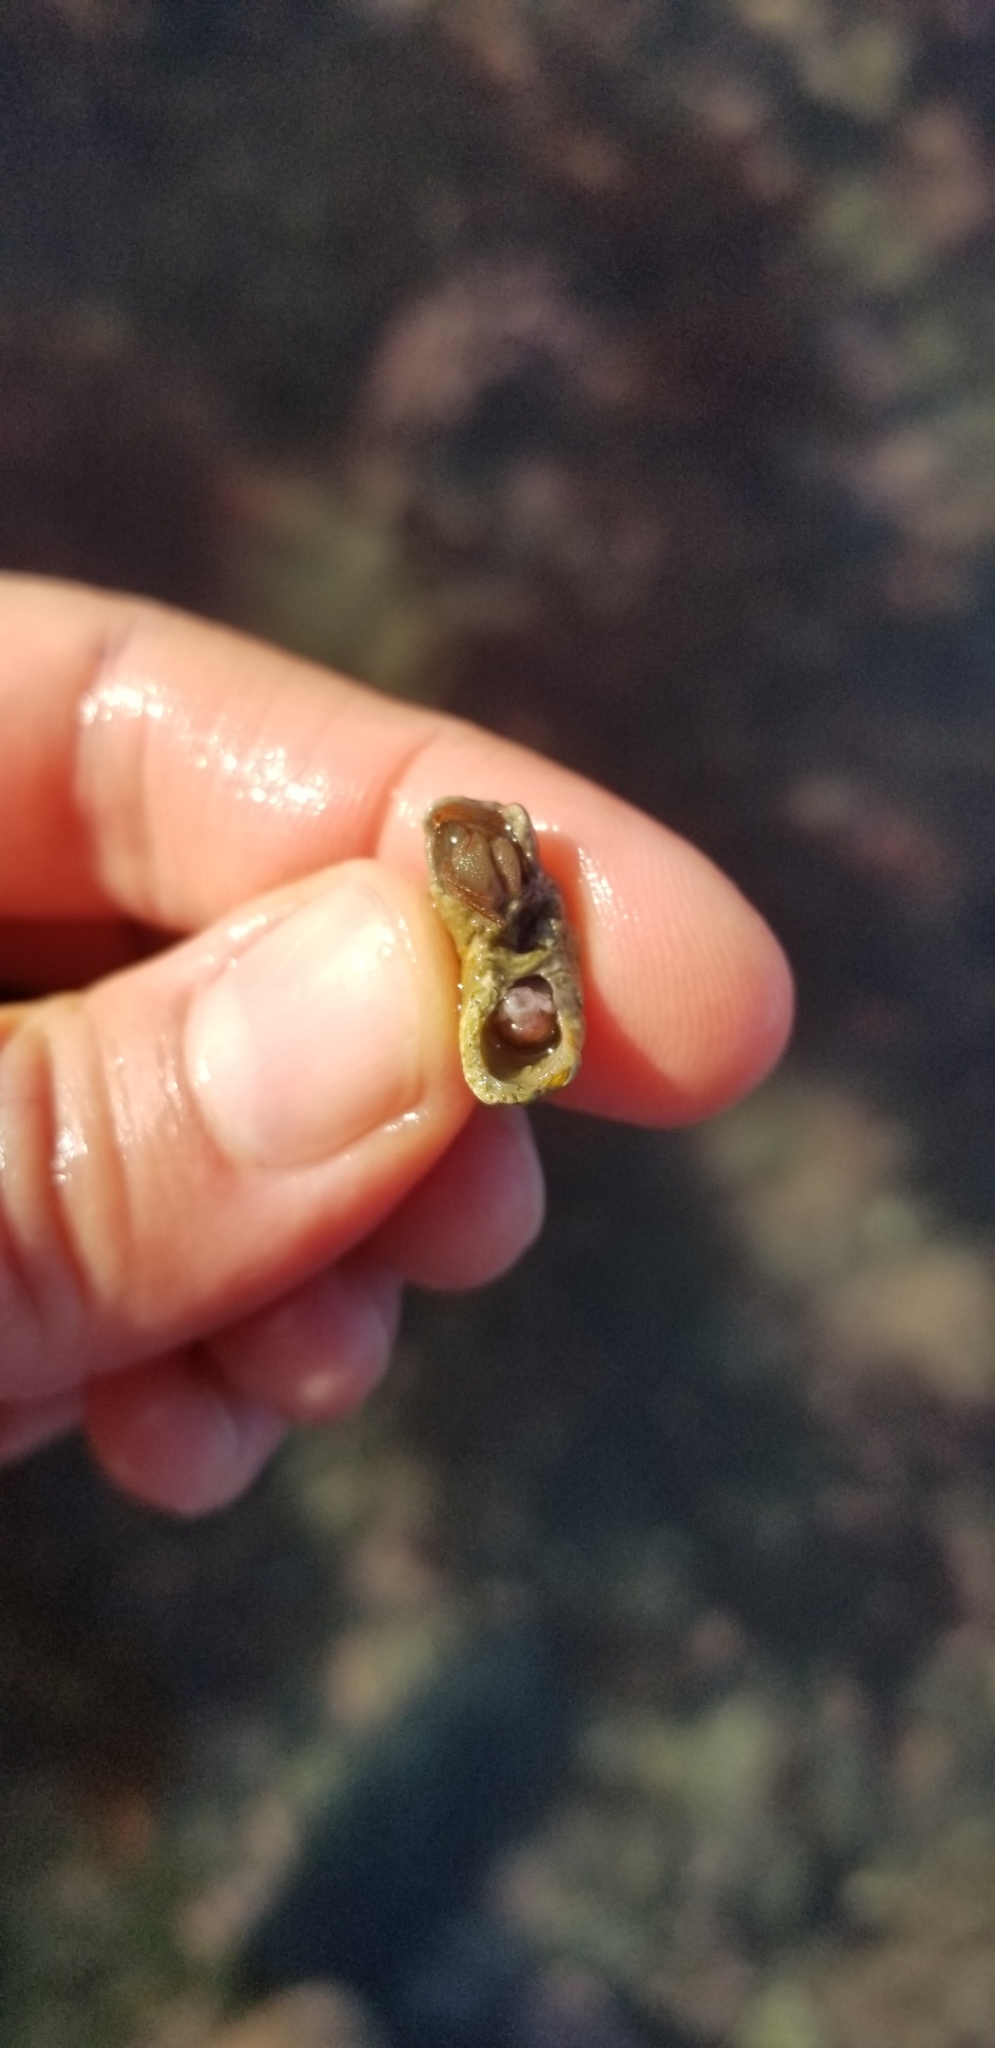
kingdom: Animalia
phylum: Arthropoda
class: Malacostraca
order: Decapoda
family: Paguridae
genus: Pagurus
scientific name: Pagurus granosimanus
